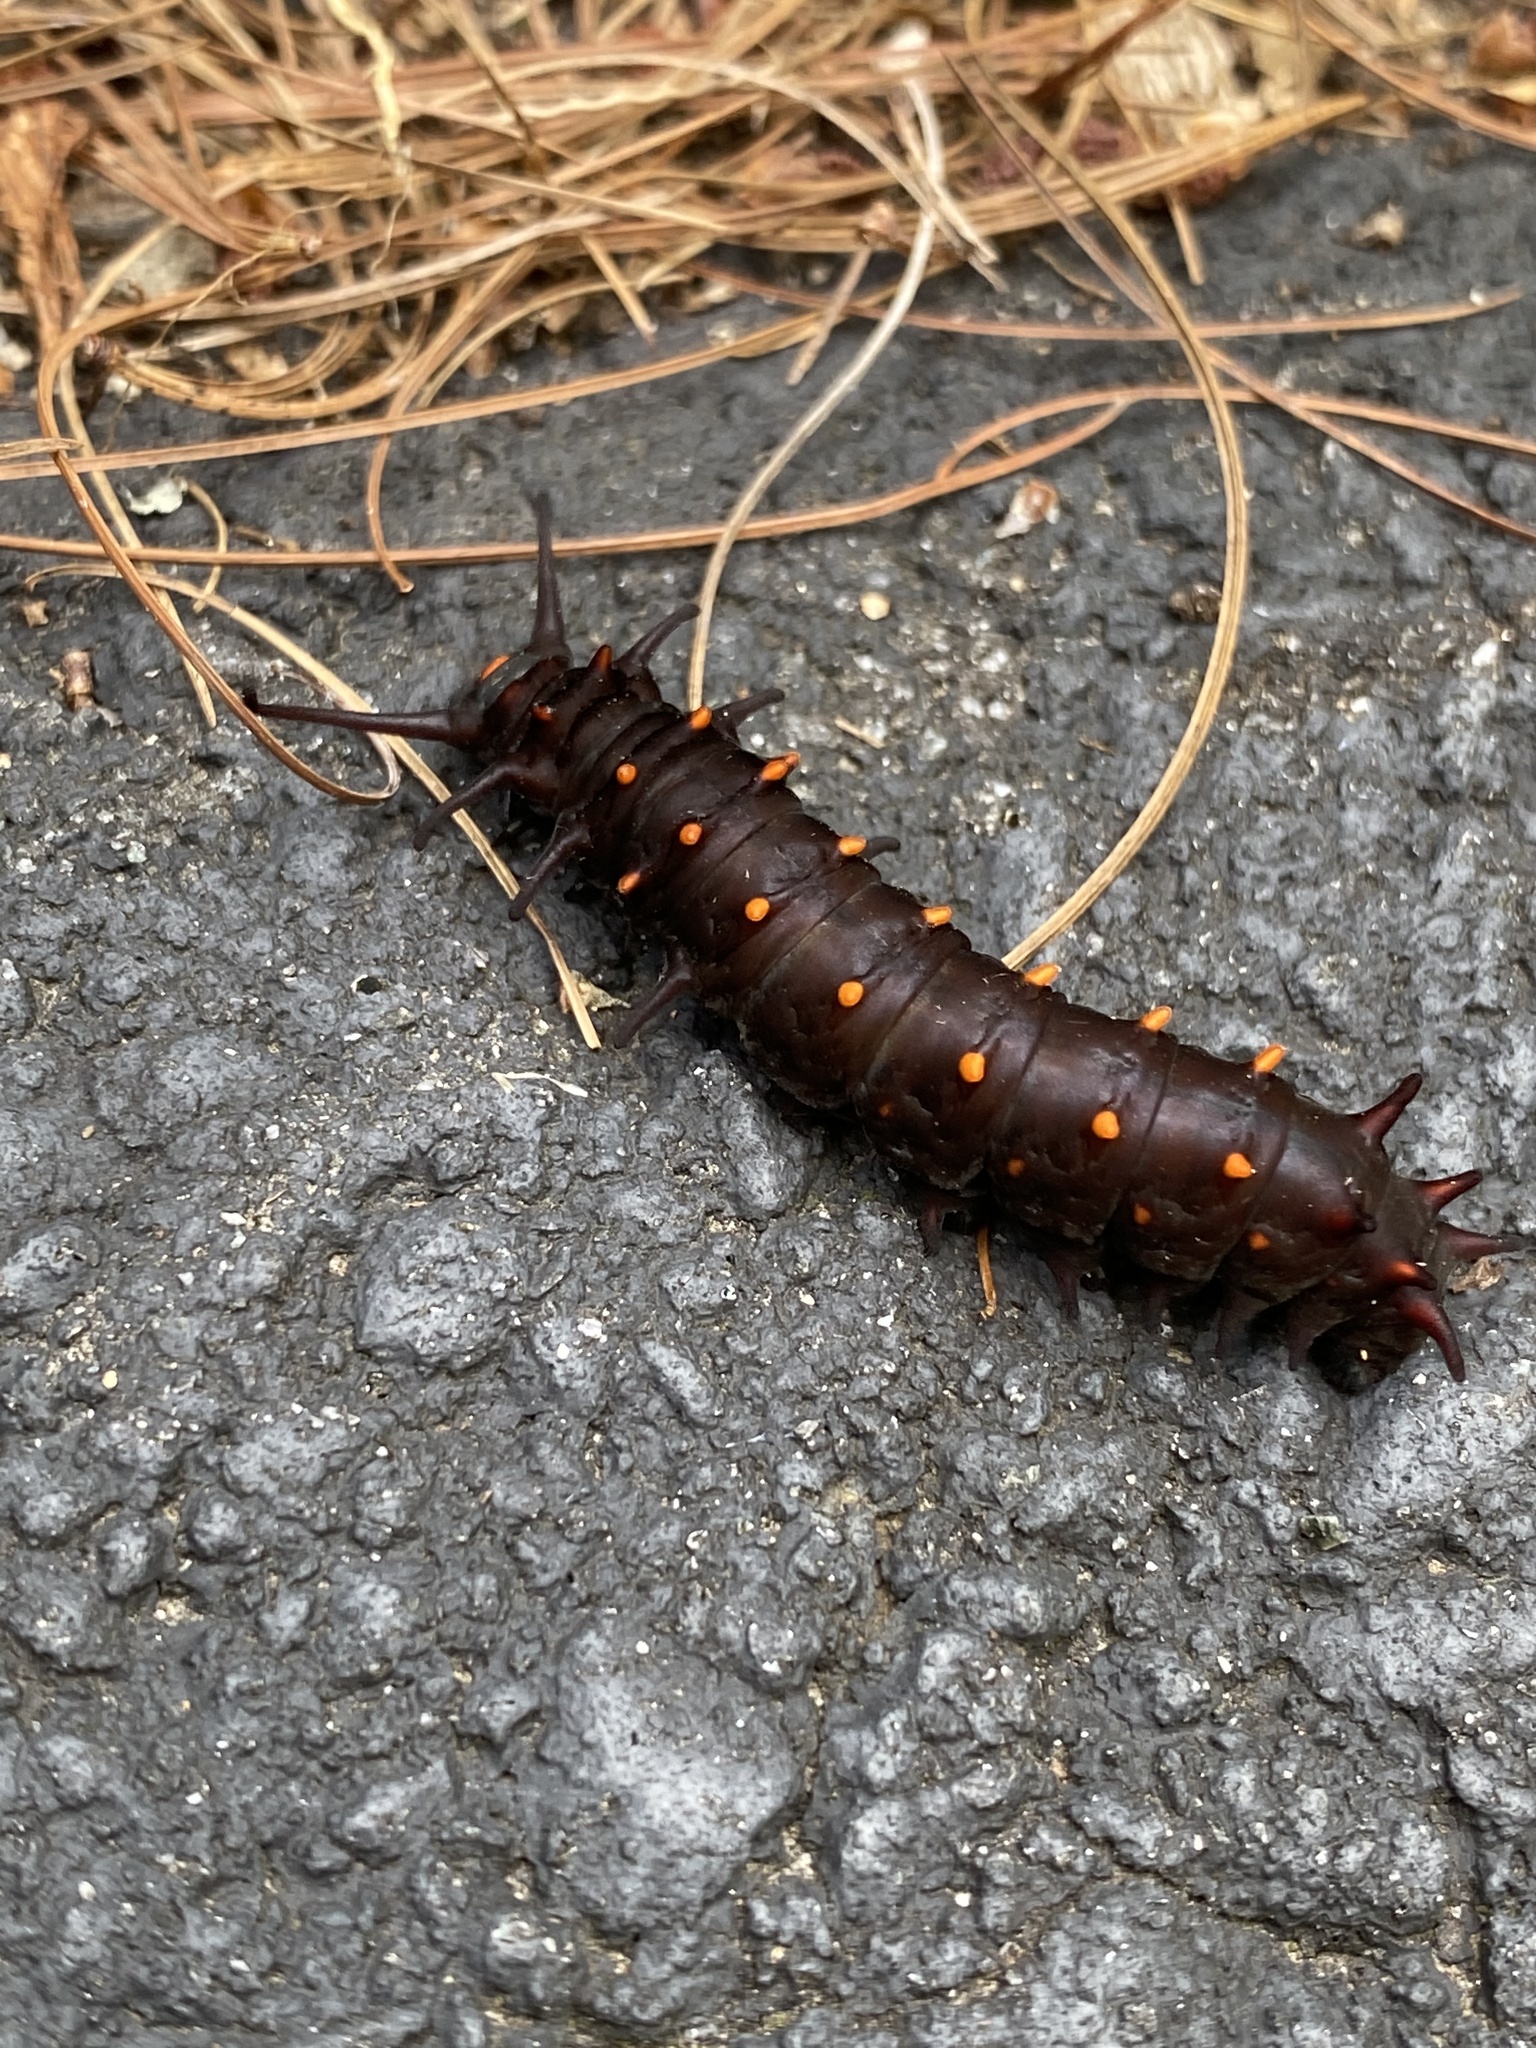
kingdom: Animalia
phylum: Arthropoda
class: Insecta
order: Lepidoptera
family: Papilionidae
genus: Battus
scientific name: Battus philenor
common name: Pipevine swallowtail
